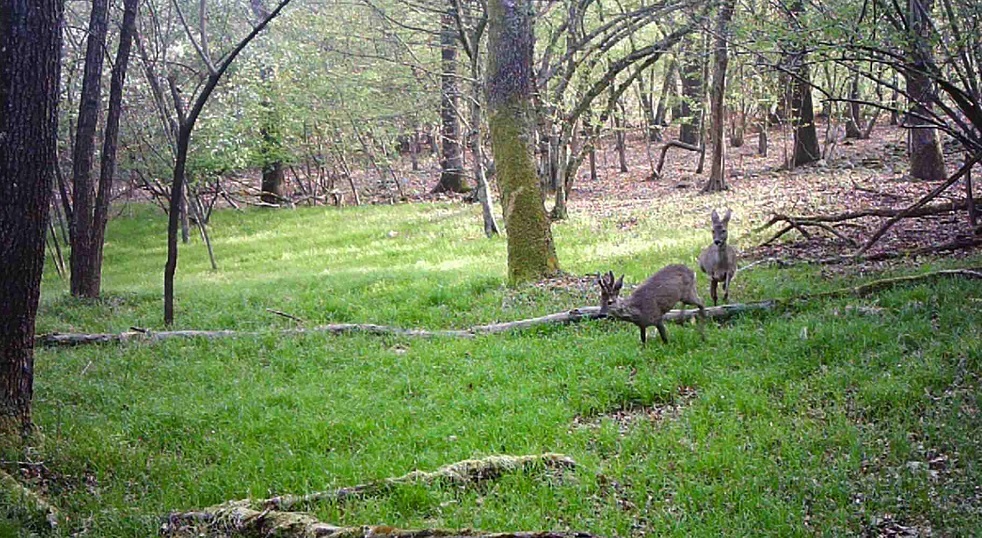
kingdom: Animalia
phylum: Chordata
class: Mammalia
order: Artiodactyla
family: Cervidae
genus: Capreolus
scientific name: Capreolus capreolus
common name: Western roe deer
